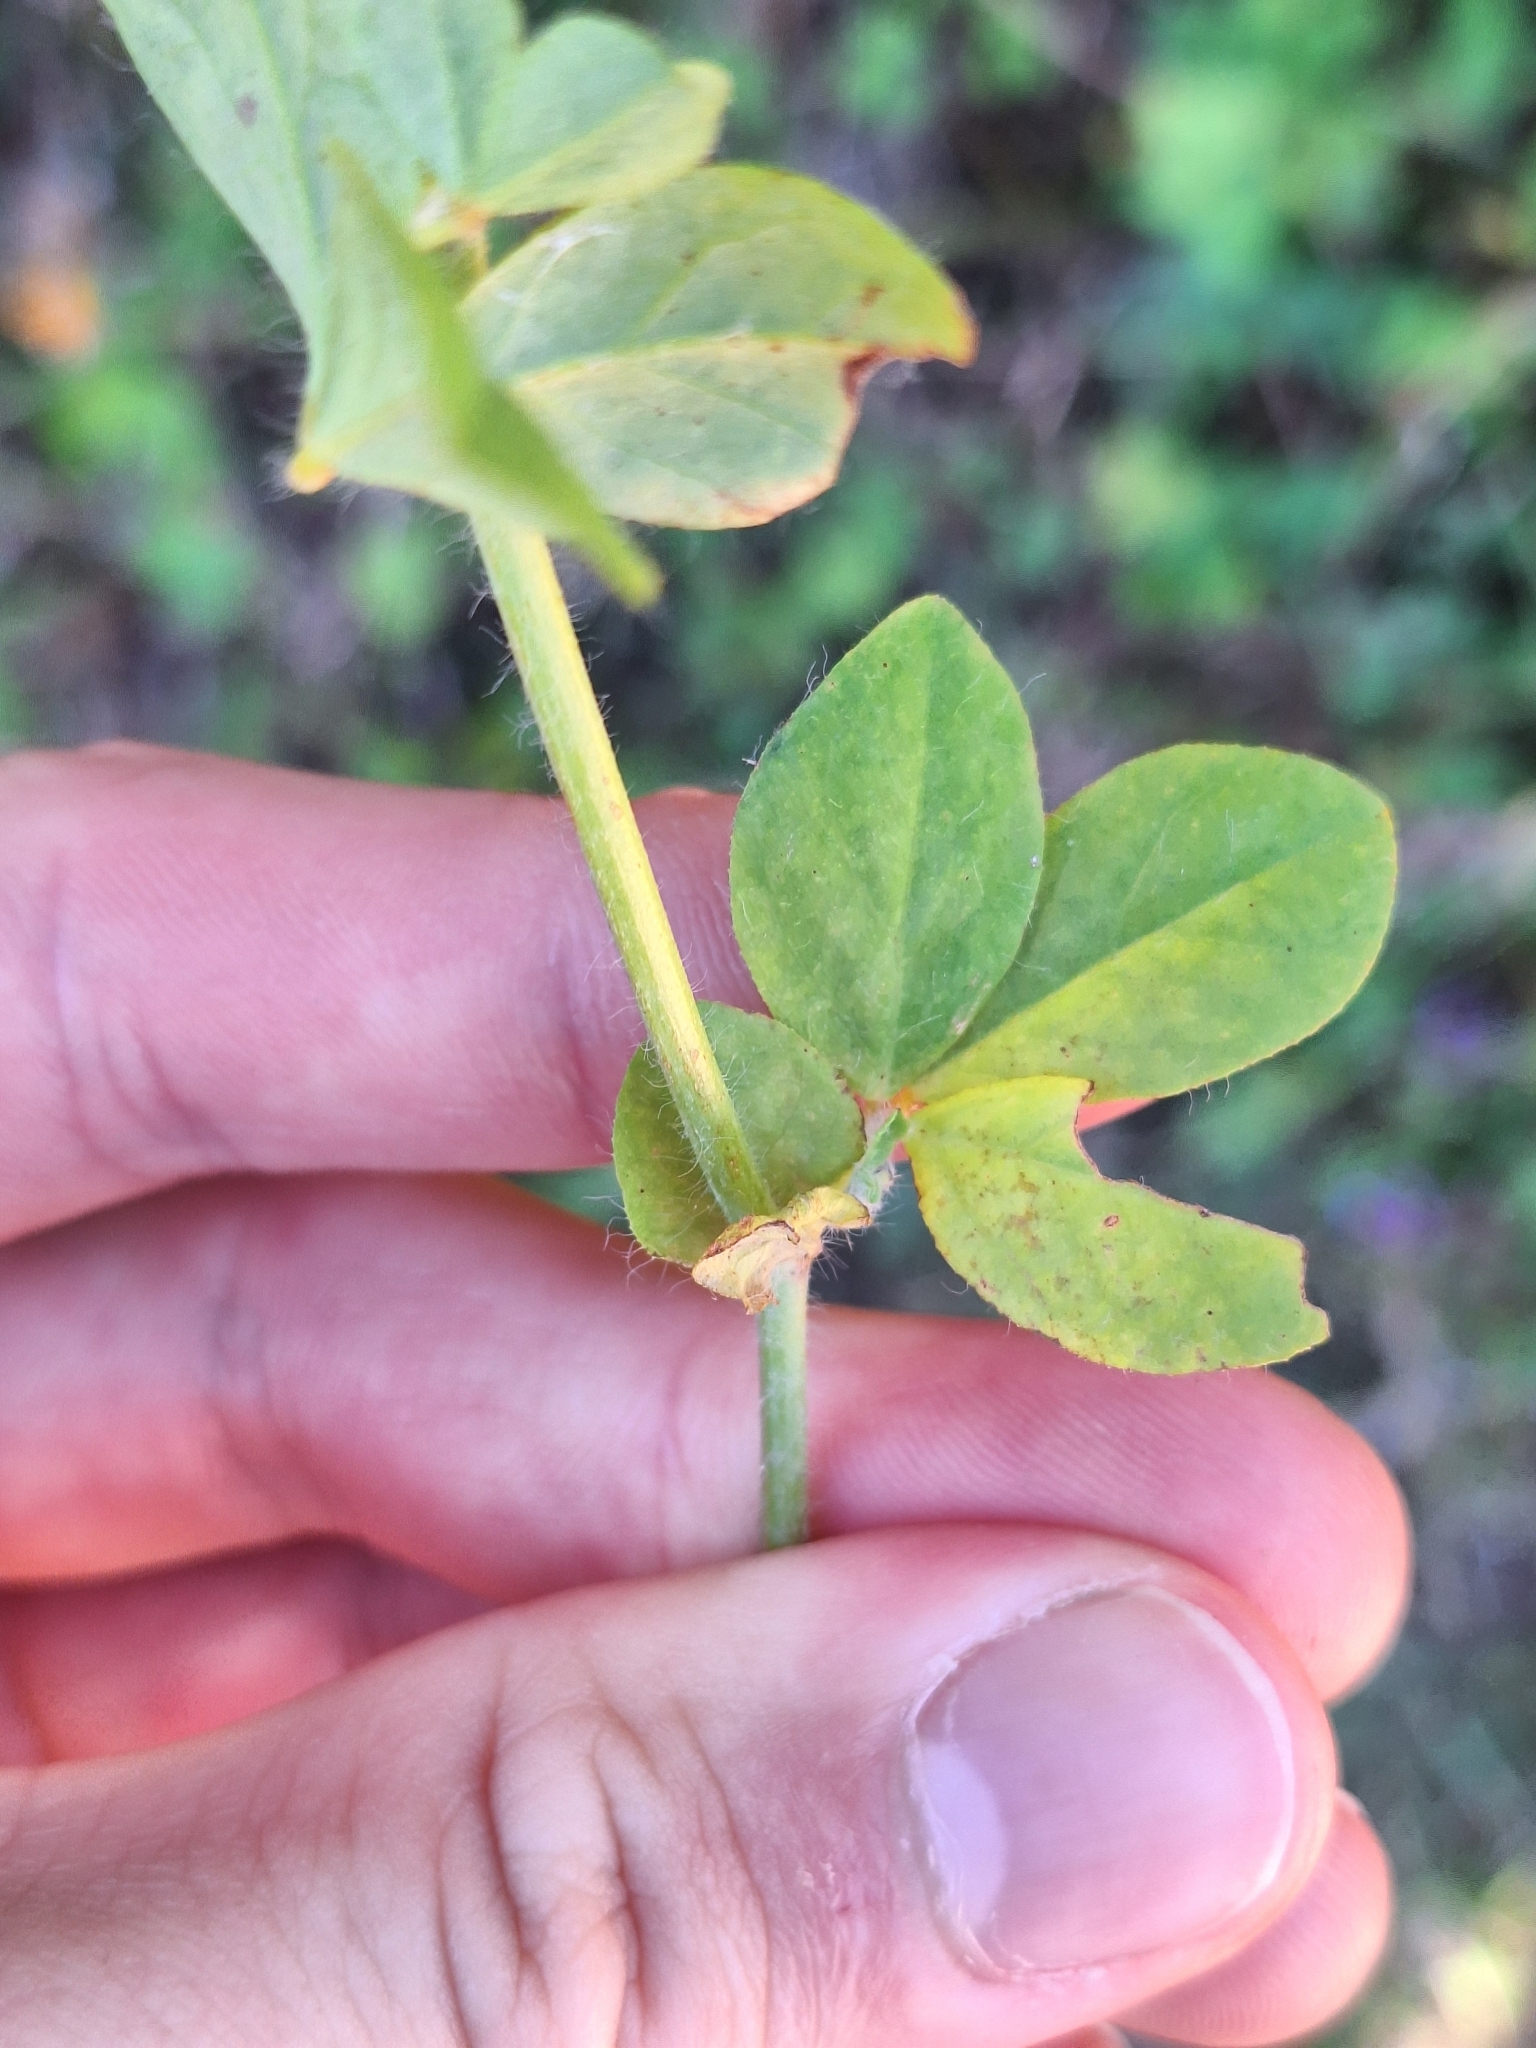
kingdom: Plantae
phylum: Tracheophyta
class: Magnoliopsida
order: Fabales
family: Fabaceae
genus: Lotus
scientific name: Lotus pedunculatus
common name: Greater birdsfoot-trefoil
